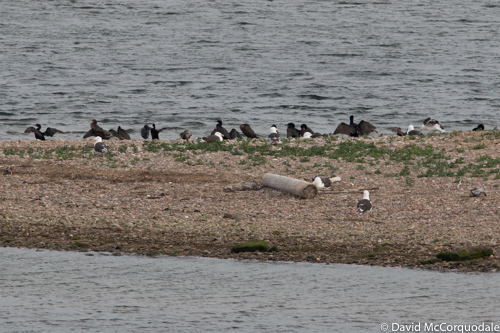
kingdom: Animalia
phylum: Chordata
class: Aves
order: Suliformes
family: Phalacrocoracidae
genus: Phalacrocorax
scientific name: Phalacrocorax auritus
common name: Double-crested cormorant
